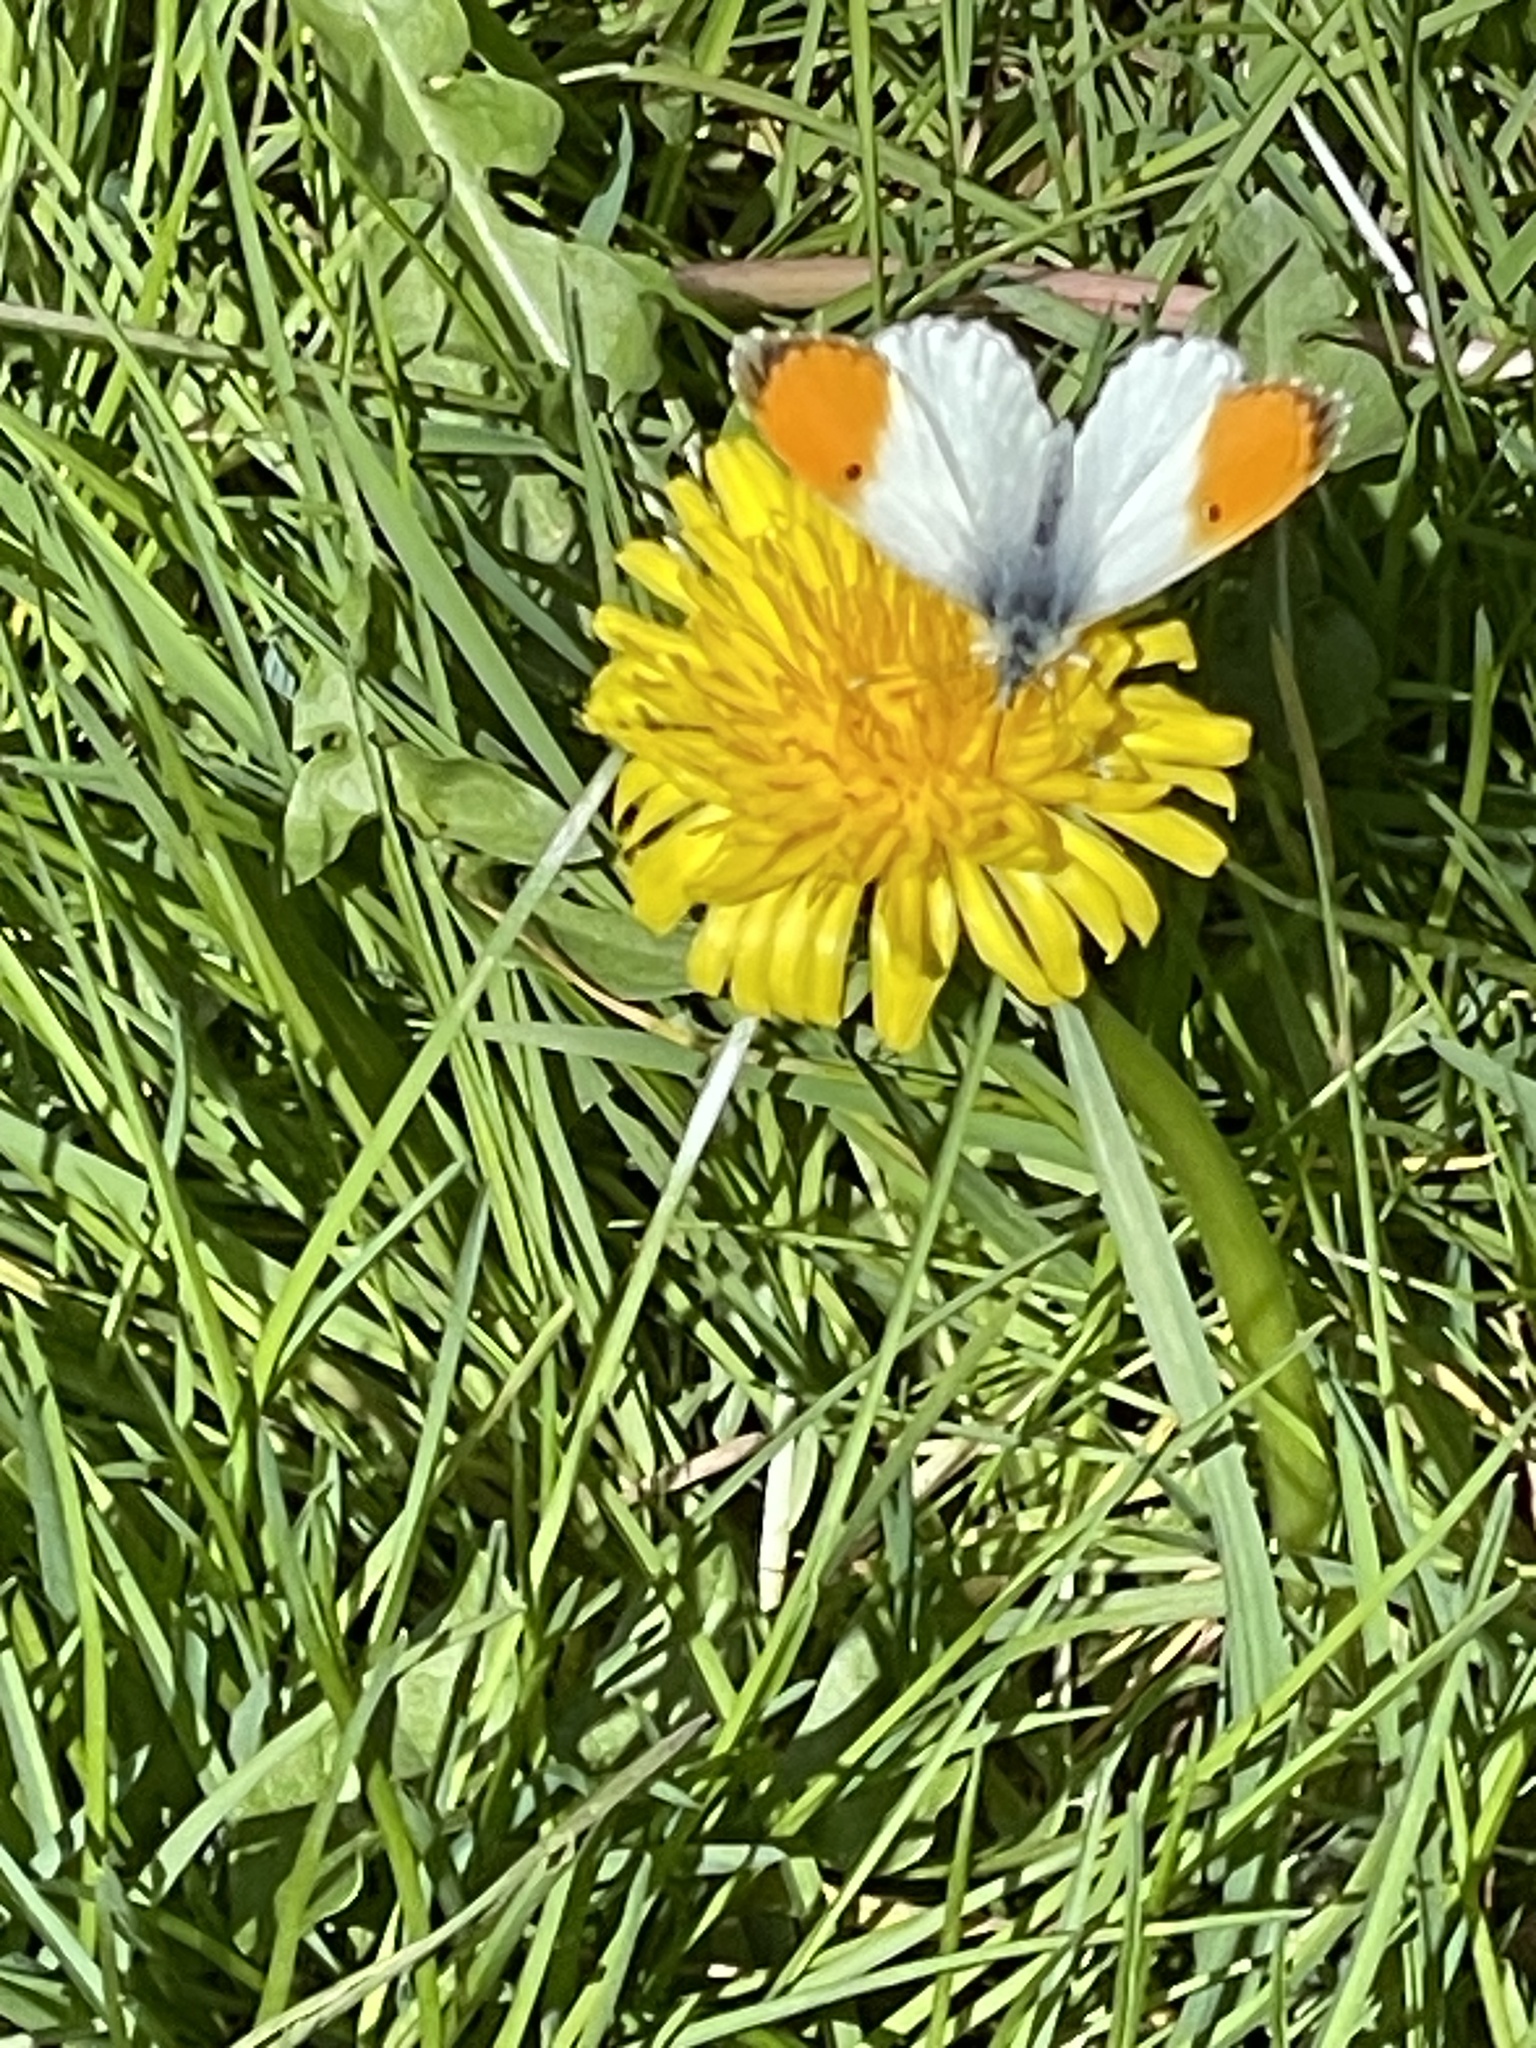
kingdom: Animalia
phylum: Arthropoda
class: Insecta
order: Lepidoptera
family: Pieridae
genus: Anthocharis
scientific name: Anthocharis cardamines
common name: Orange-tip
